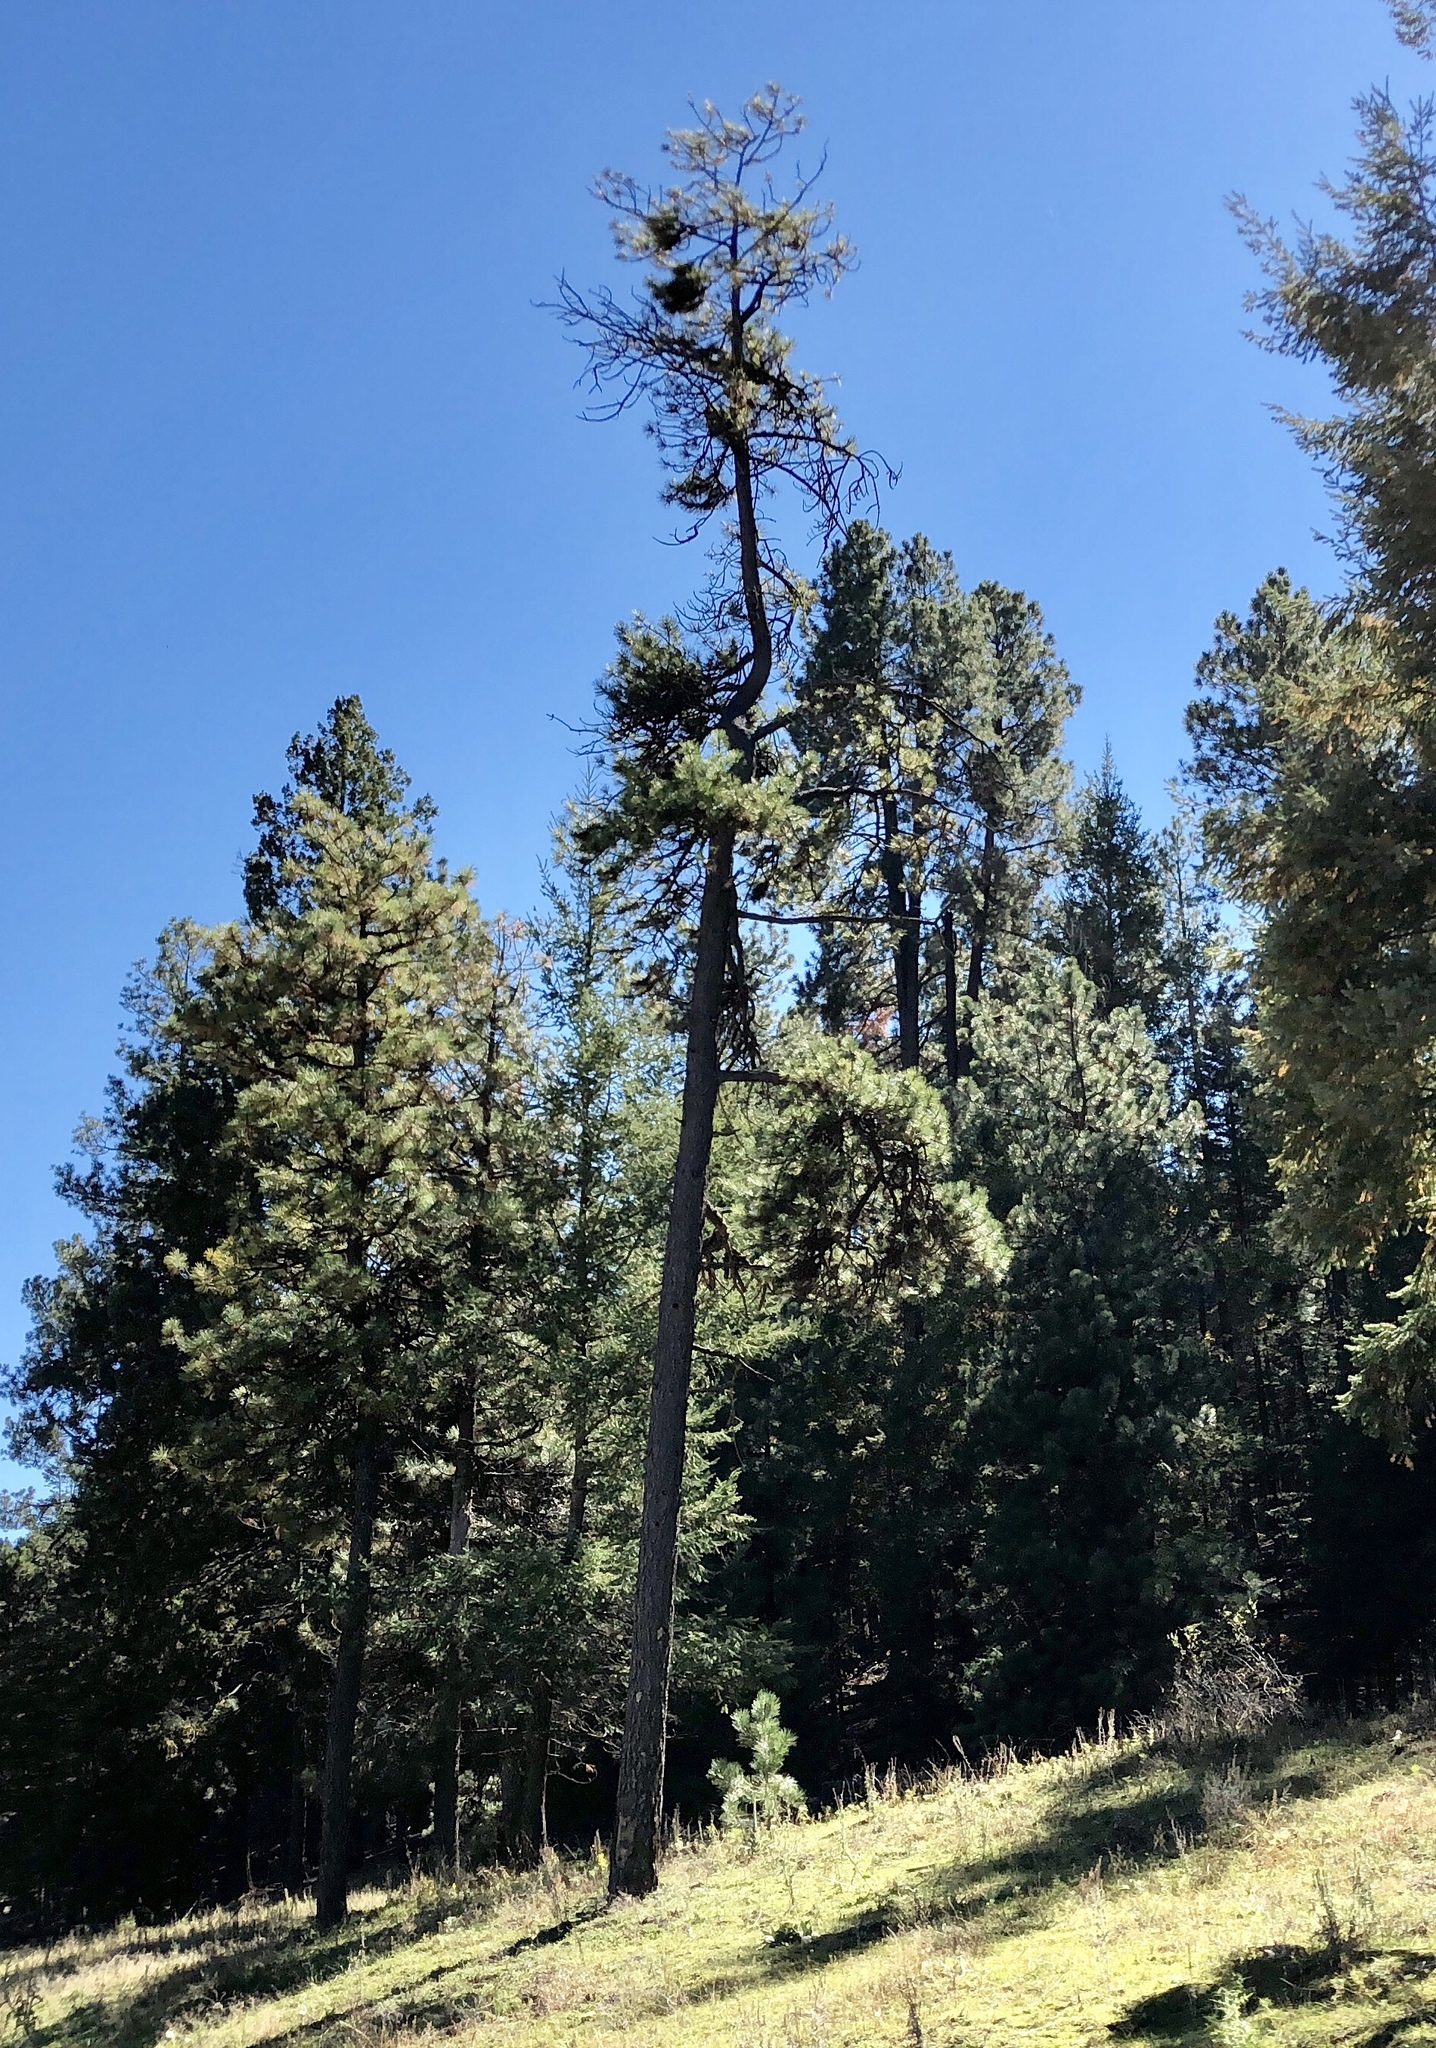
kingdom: Plantae
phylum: Tracheophyta
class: Pinopsida
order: Pinales
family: Pinaceae
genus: Pinus
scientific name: Pinus ponderosa
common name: Western yellow-pine
